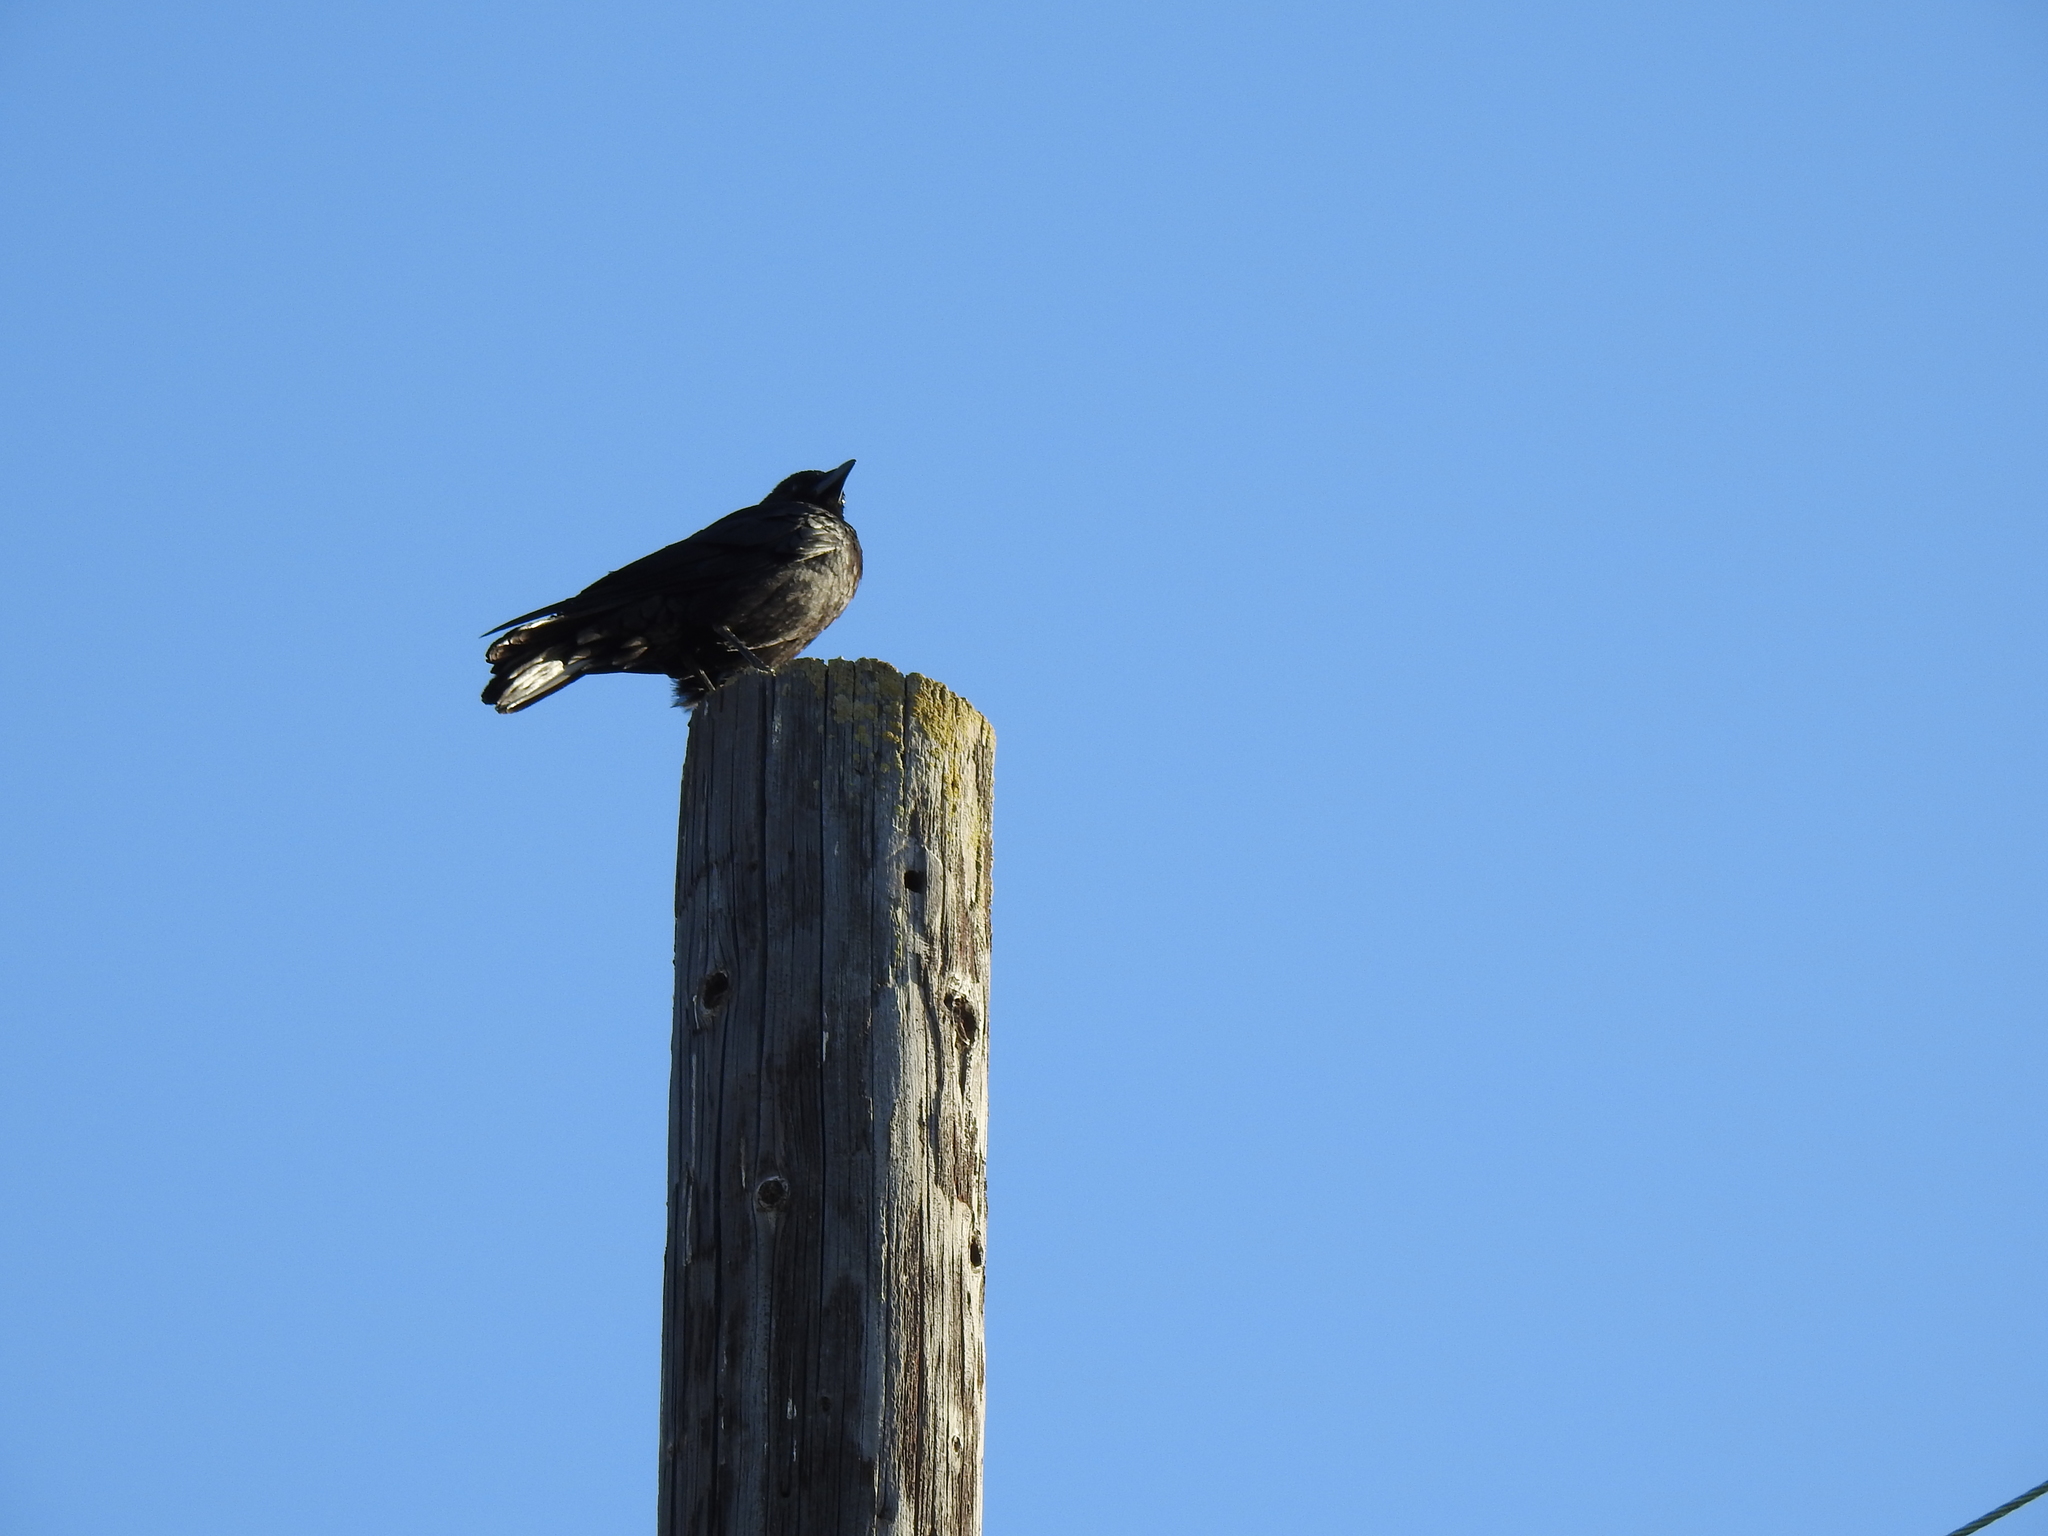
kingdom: Animalia
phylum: Chordata
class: Aves
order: Passeriformes
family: Corvidae
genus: Corvus
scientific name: Corvus brachyrhynchos
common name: American crow
